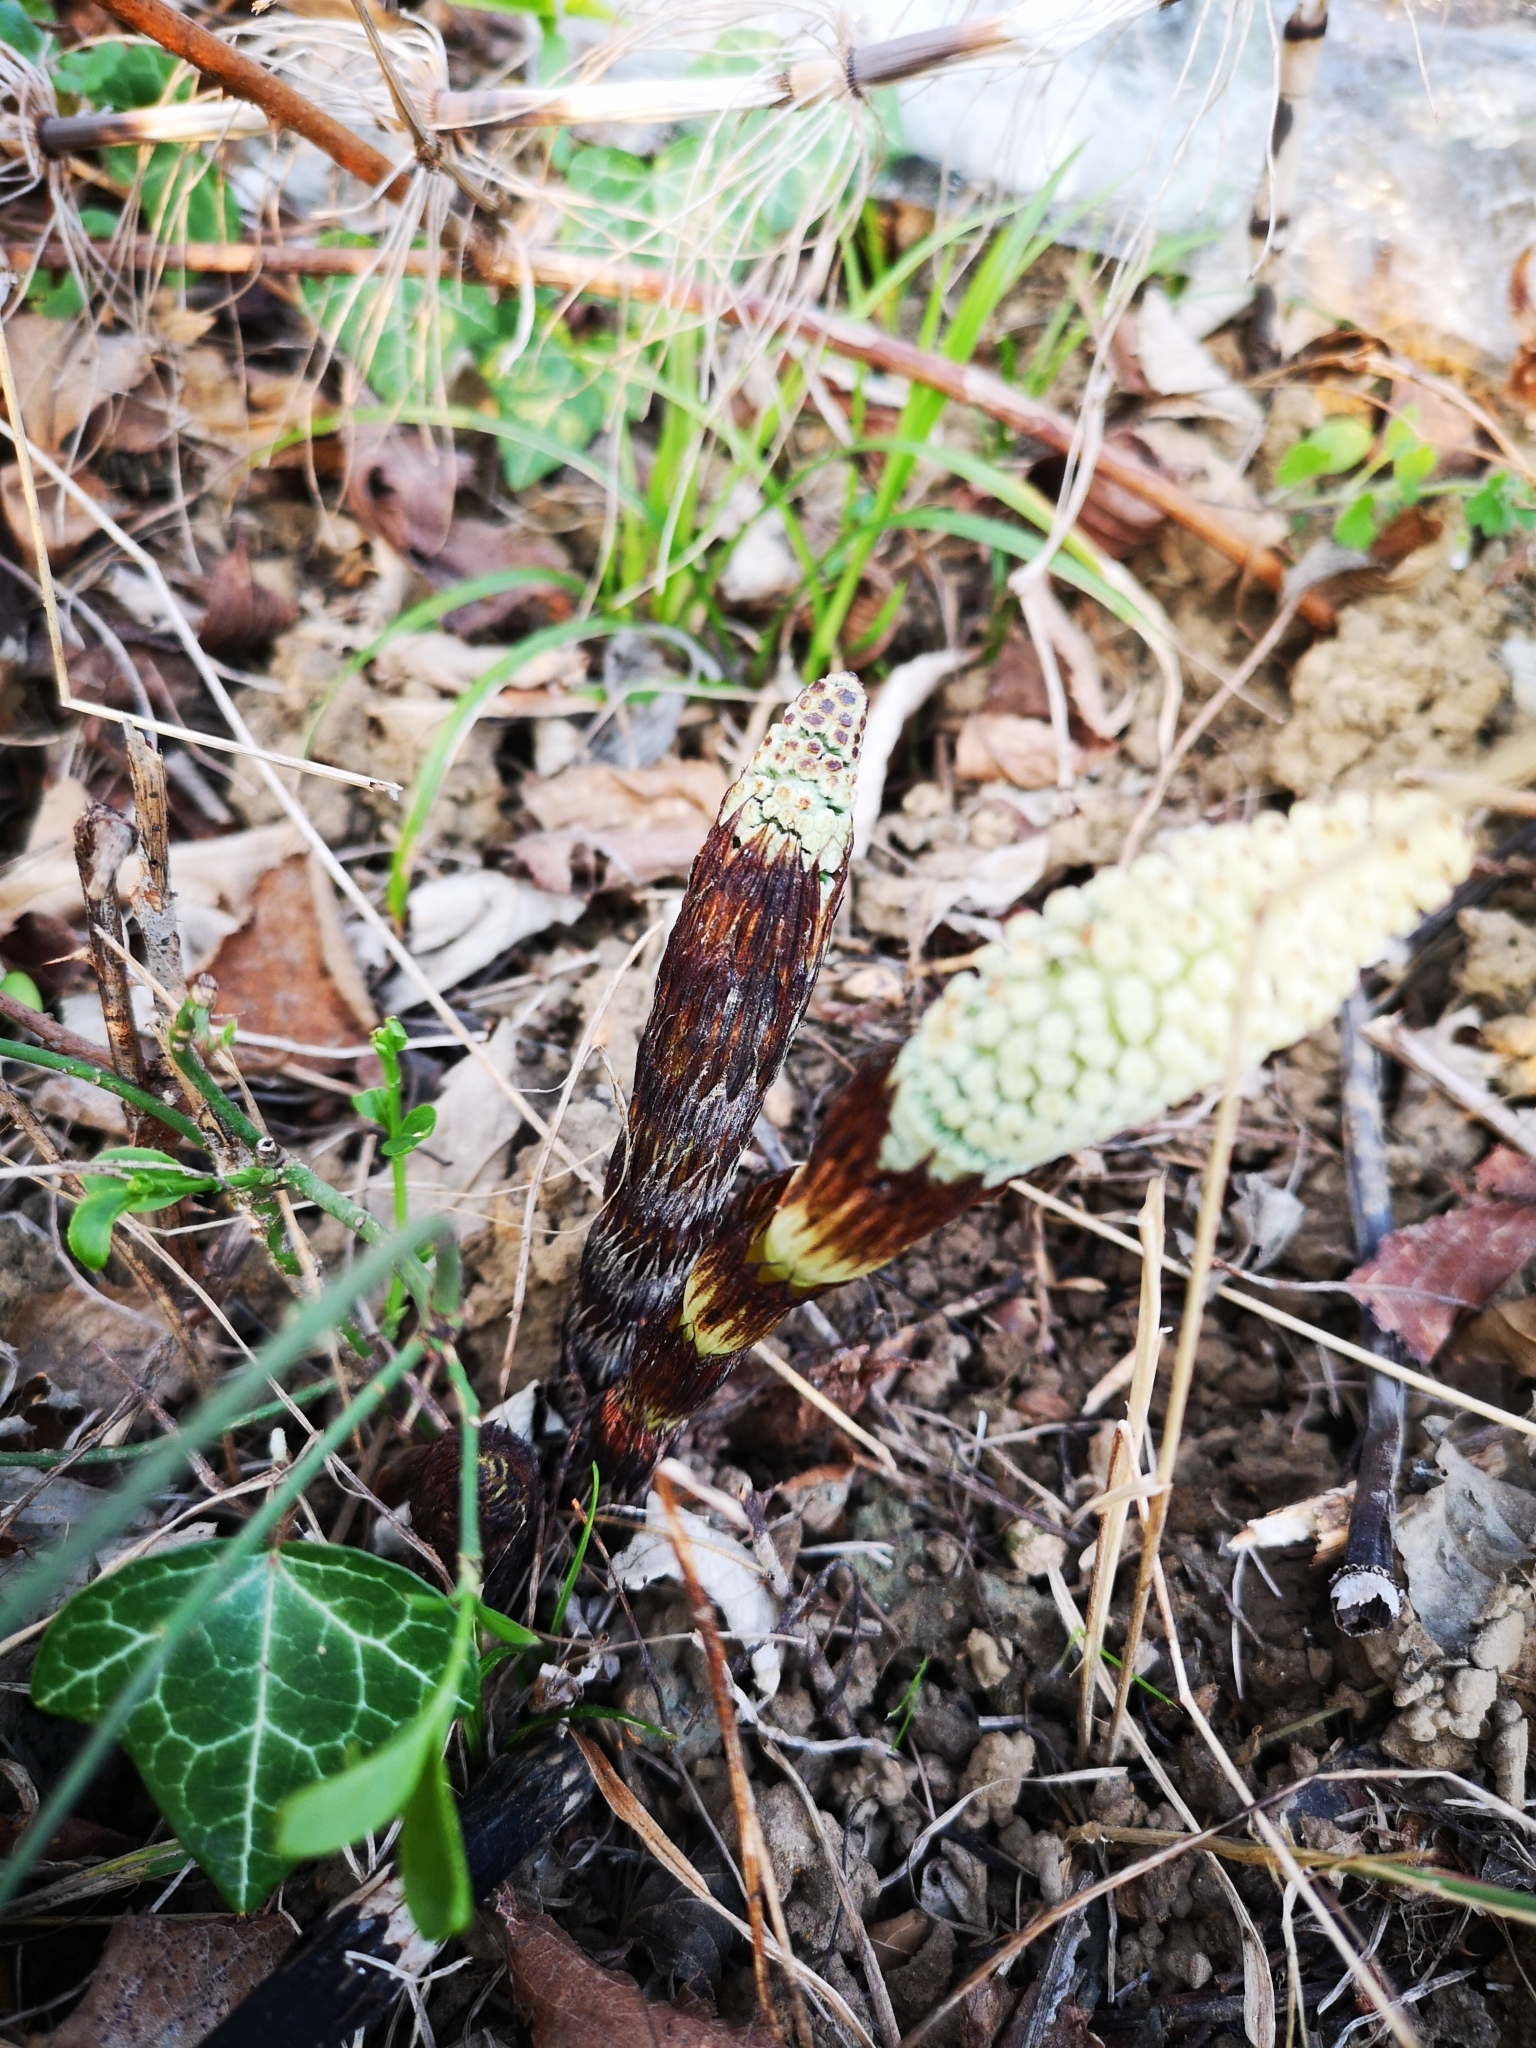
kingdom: Plantae
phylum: Tracheophyta
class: Polypodiopsida
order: Equisetales
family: Equisetaceae
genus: Equisetum
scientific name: Equisetum telmateia
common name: Great horsetail
